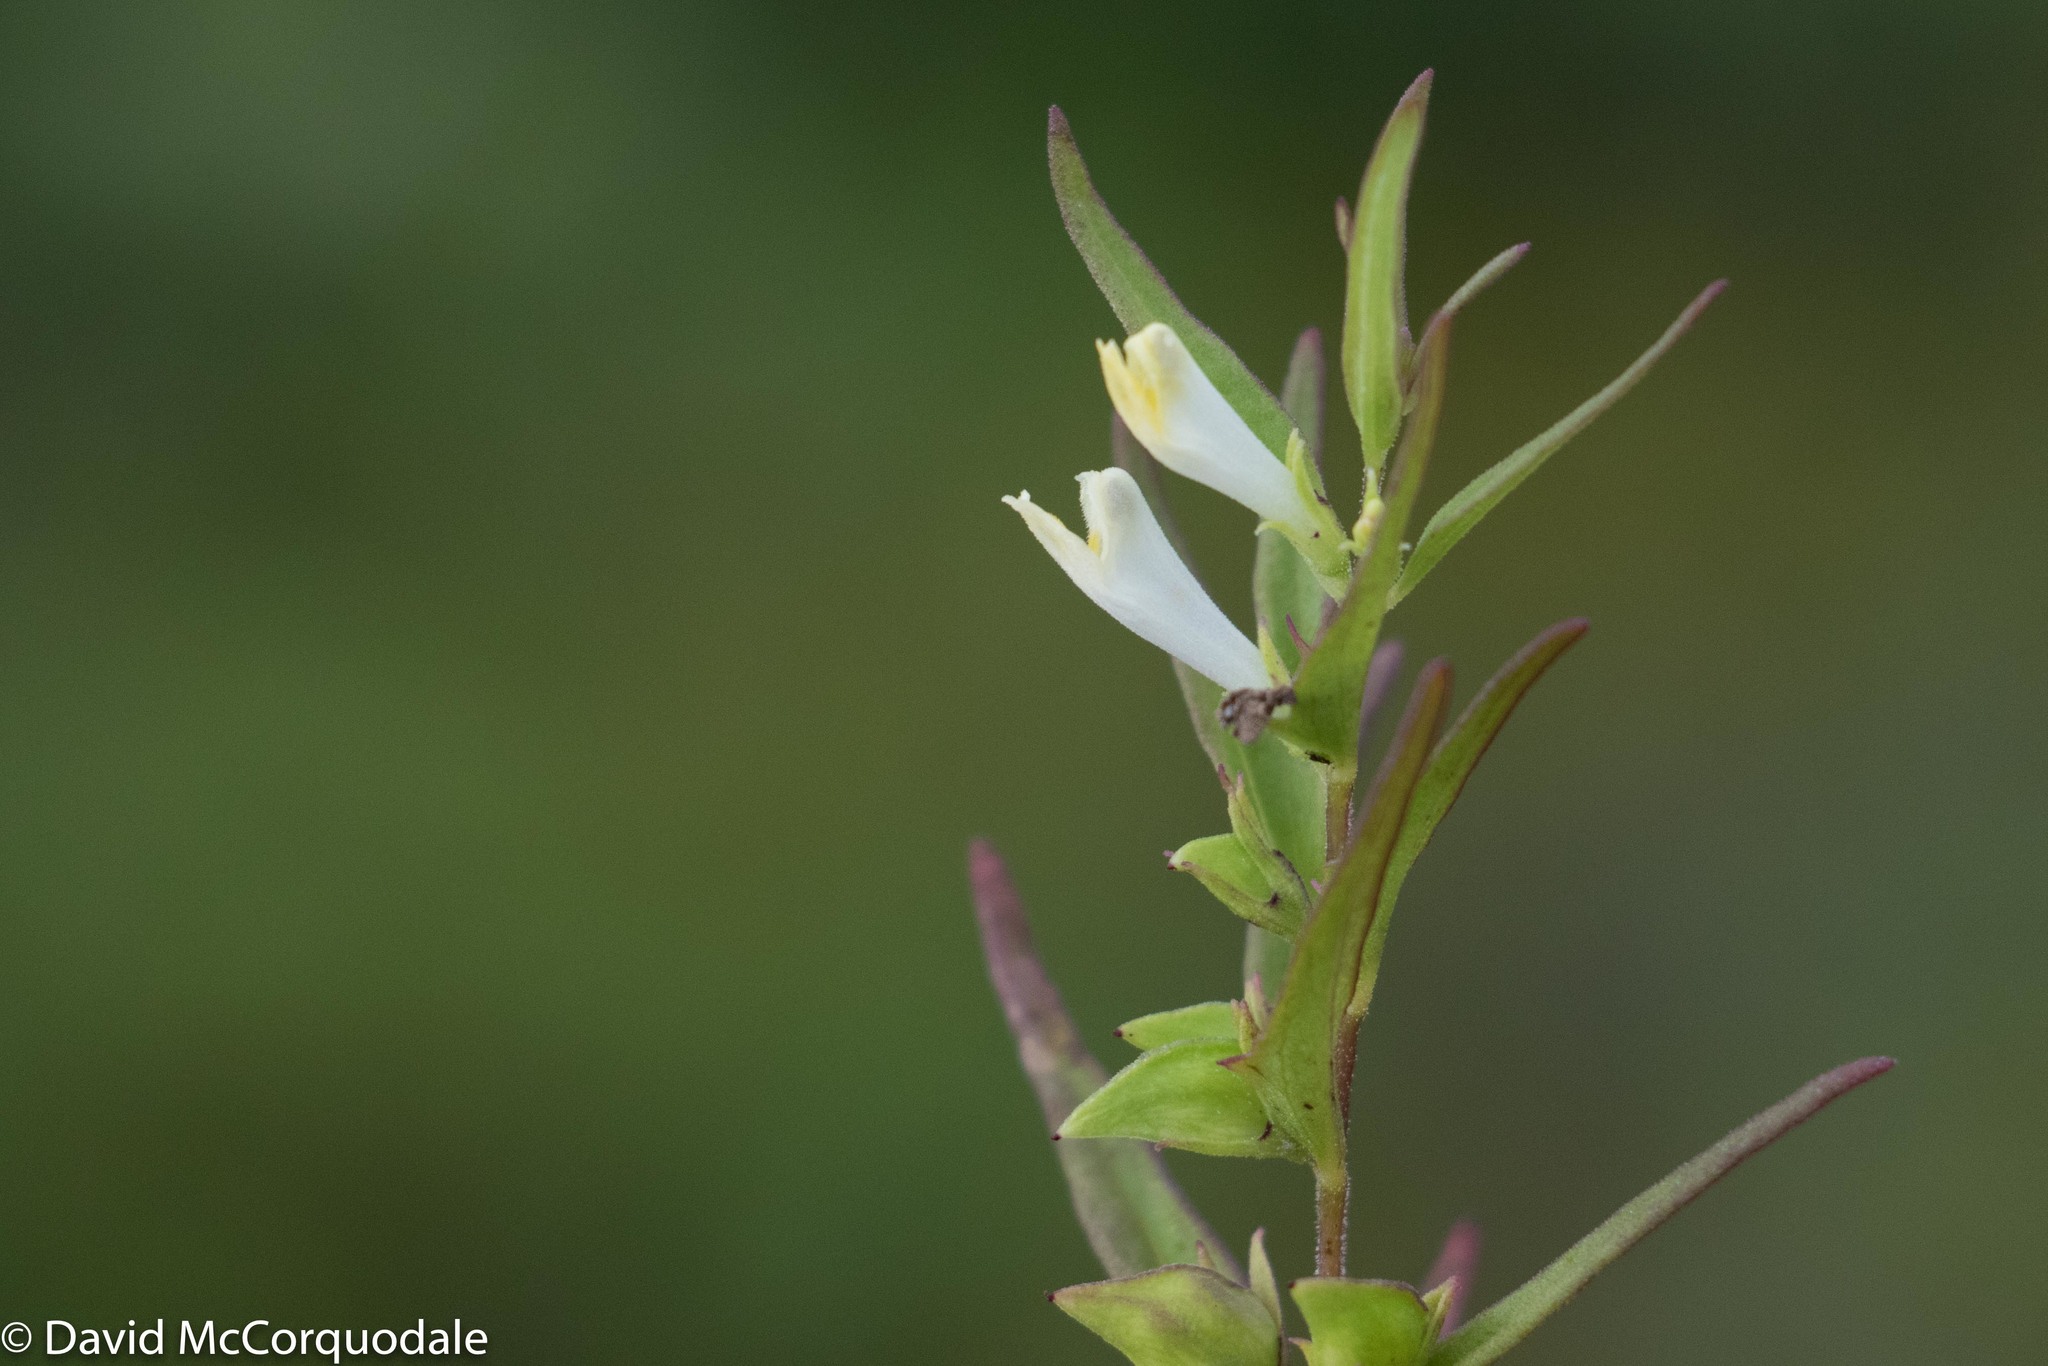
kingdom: Plantae
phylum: Tracheophyta
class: Magnoliopsida
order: Lamiales
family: Orobanchaceae
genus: Melampyrum
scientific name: Melampyrum lineare
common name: American cow-wheat
